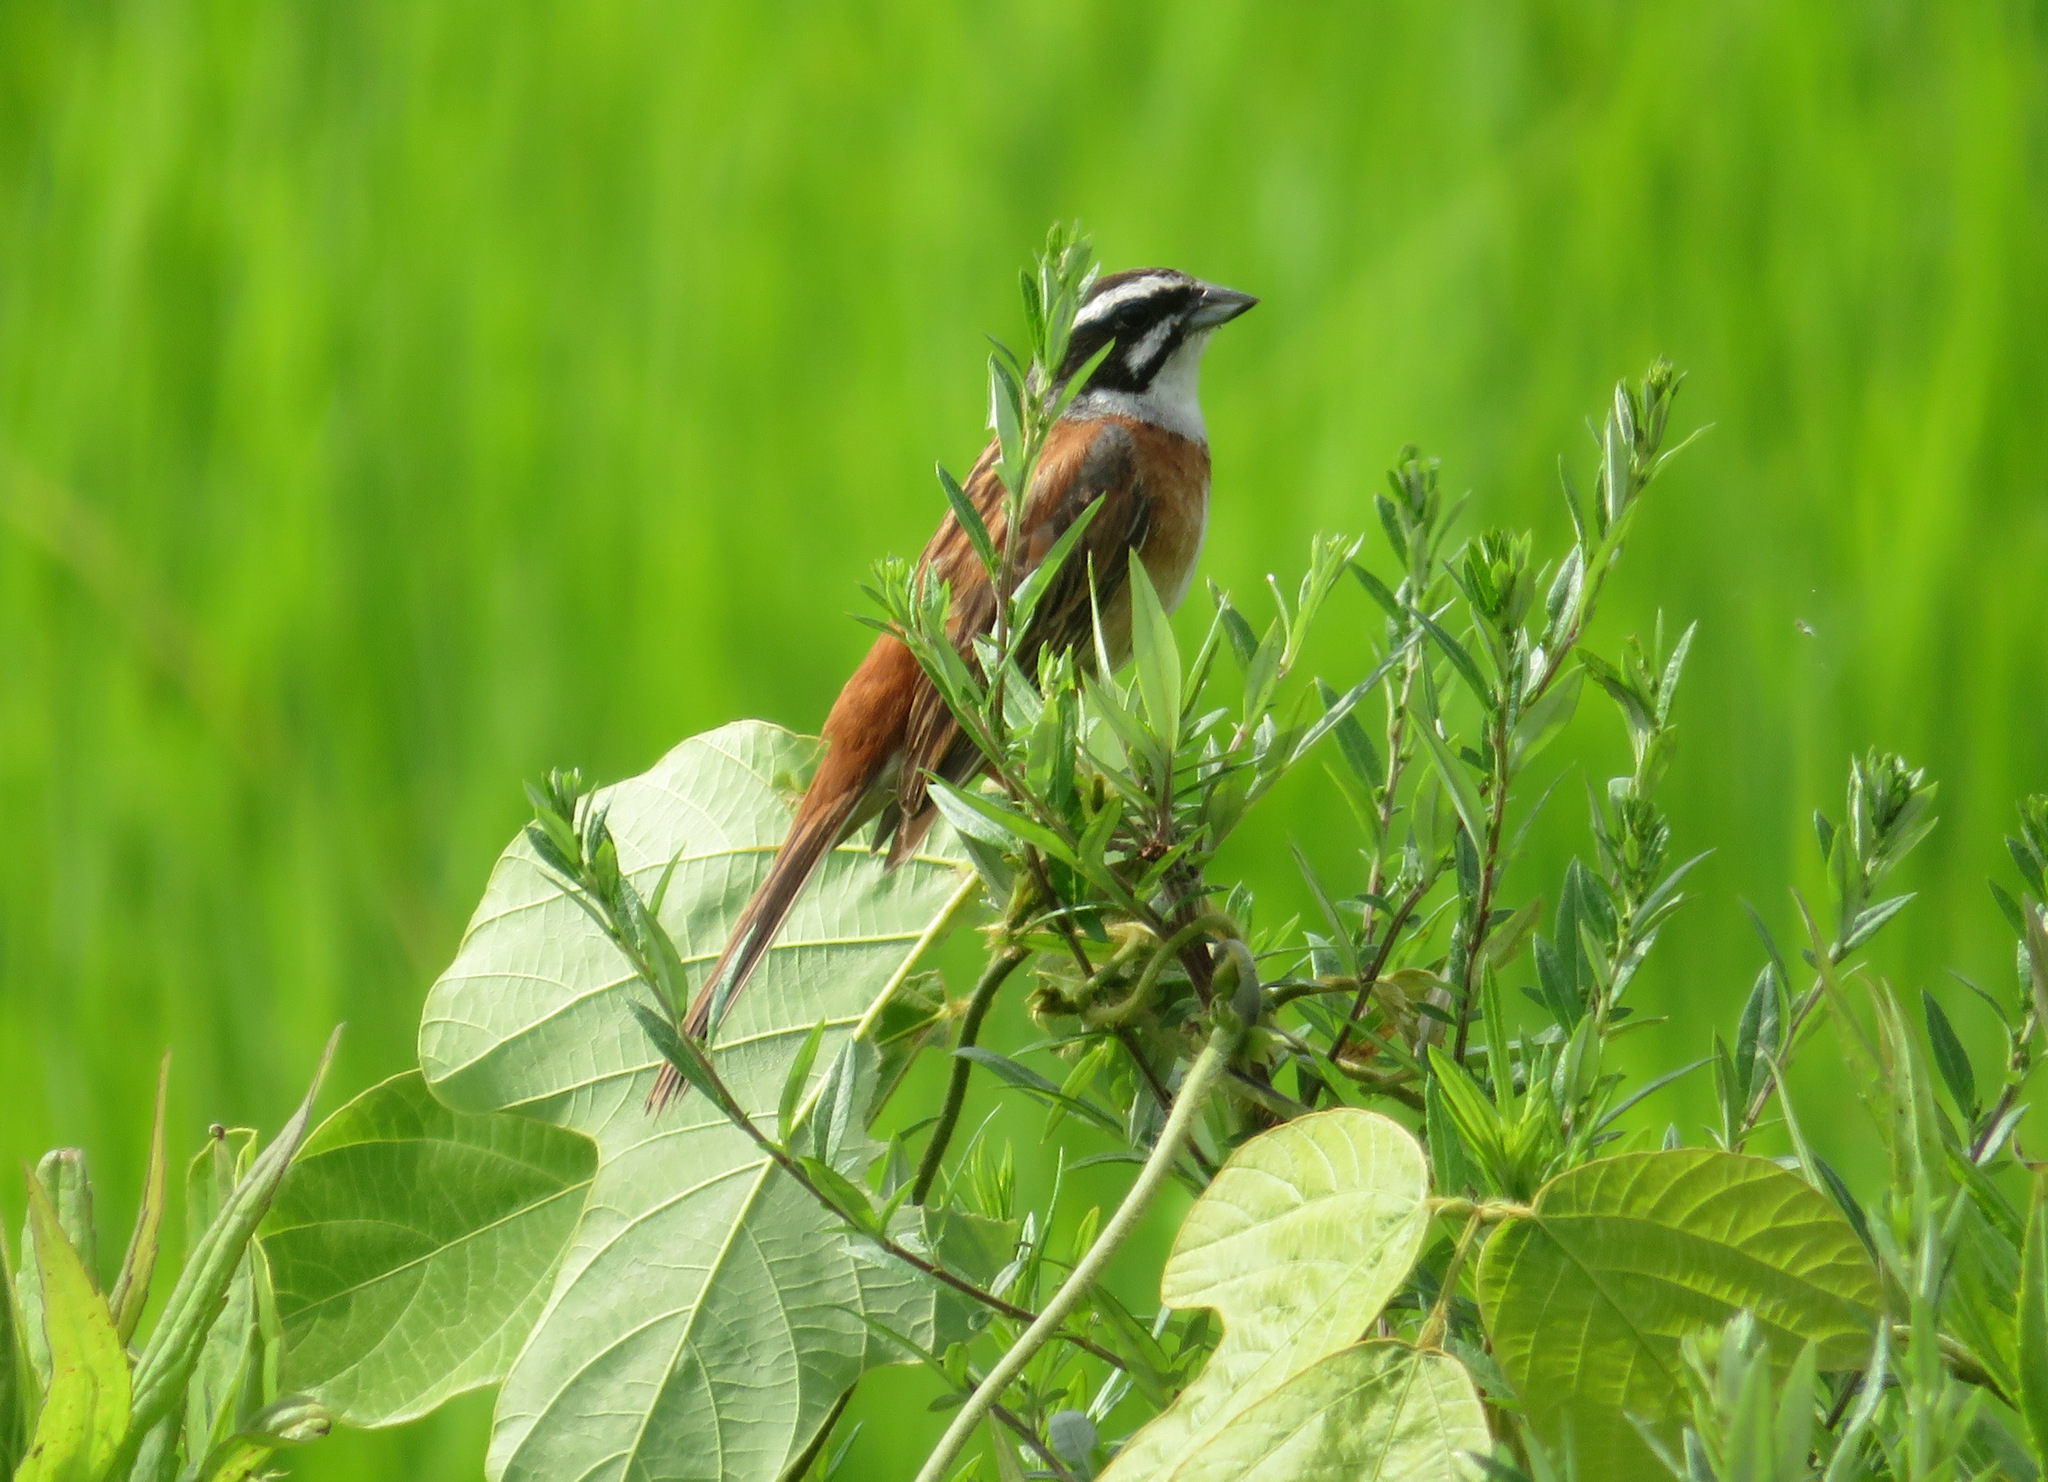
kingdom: Animalia
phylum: Chordata
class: Aves
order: Passeriformes
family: Emberizidae
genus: Emberiza
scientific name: Emberiza cioides
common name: Meadow bunting
